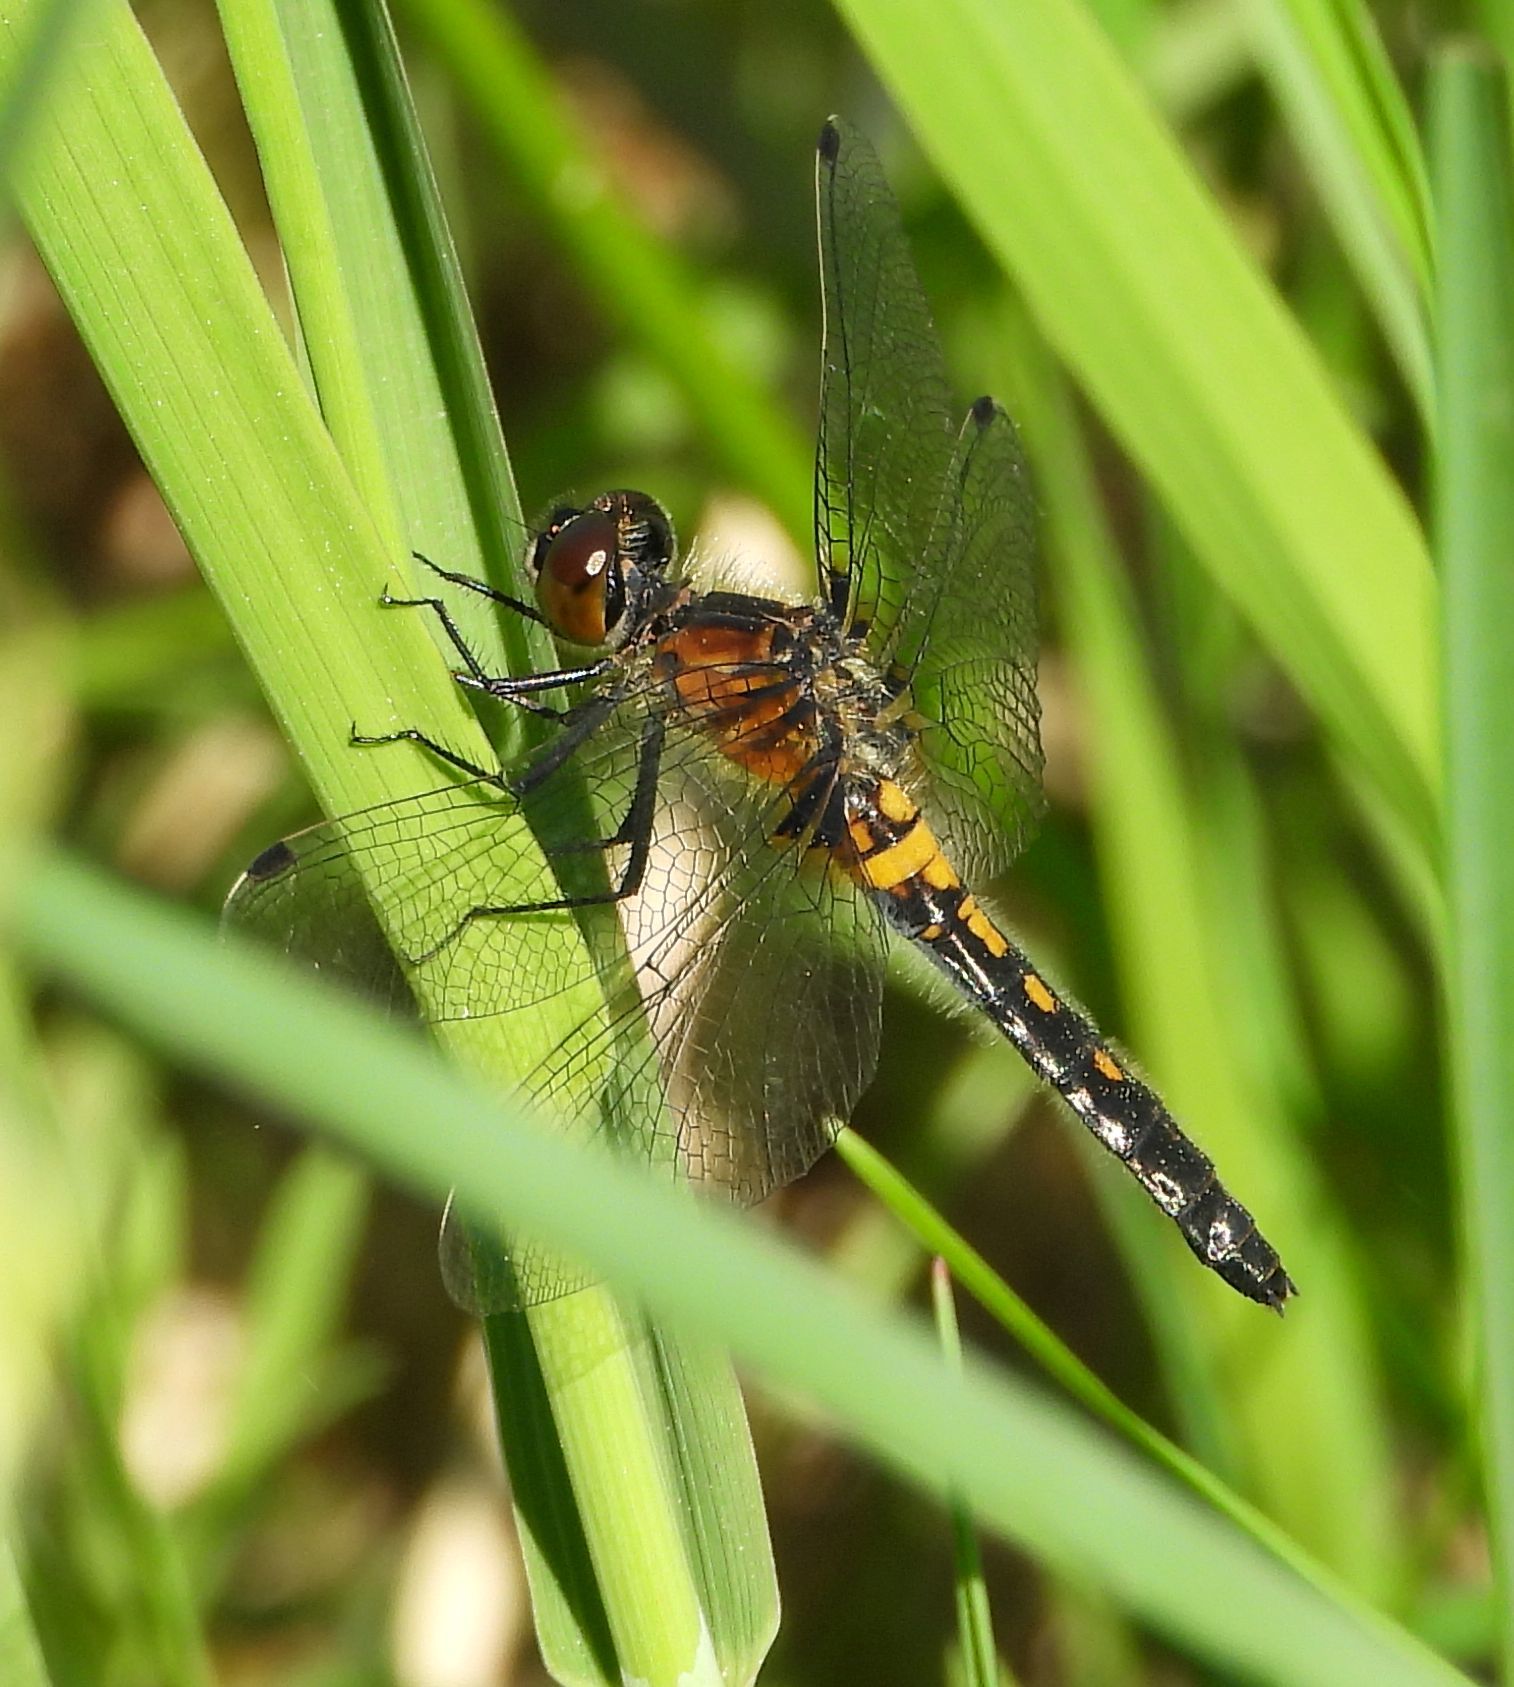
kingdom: Animalia
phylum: Arthropoda
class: Insecta
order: Odonata
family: Libellulidae
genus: Leucorrhinia
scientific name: Leucorrhinia frigida
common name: Frosted whiteface
